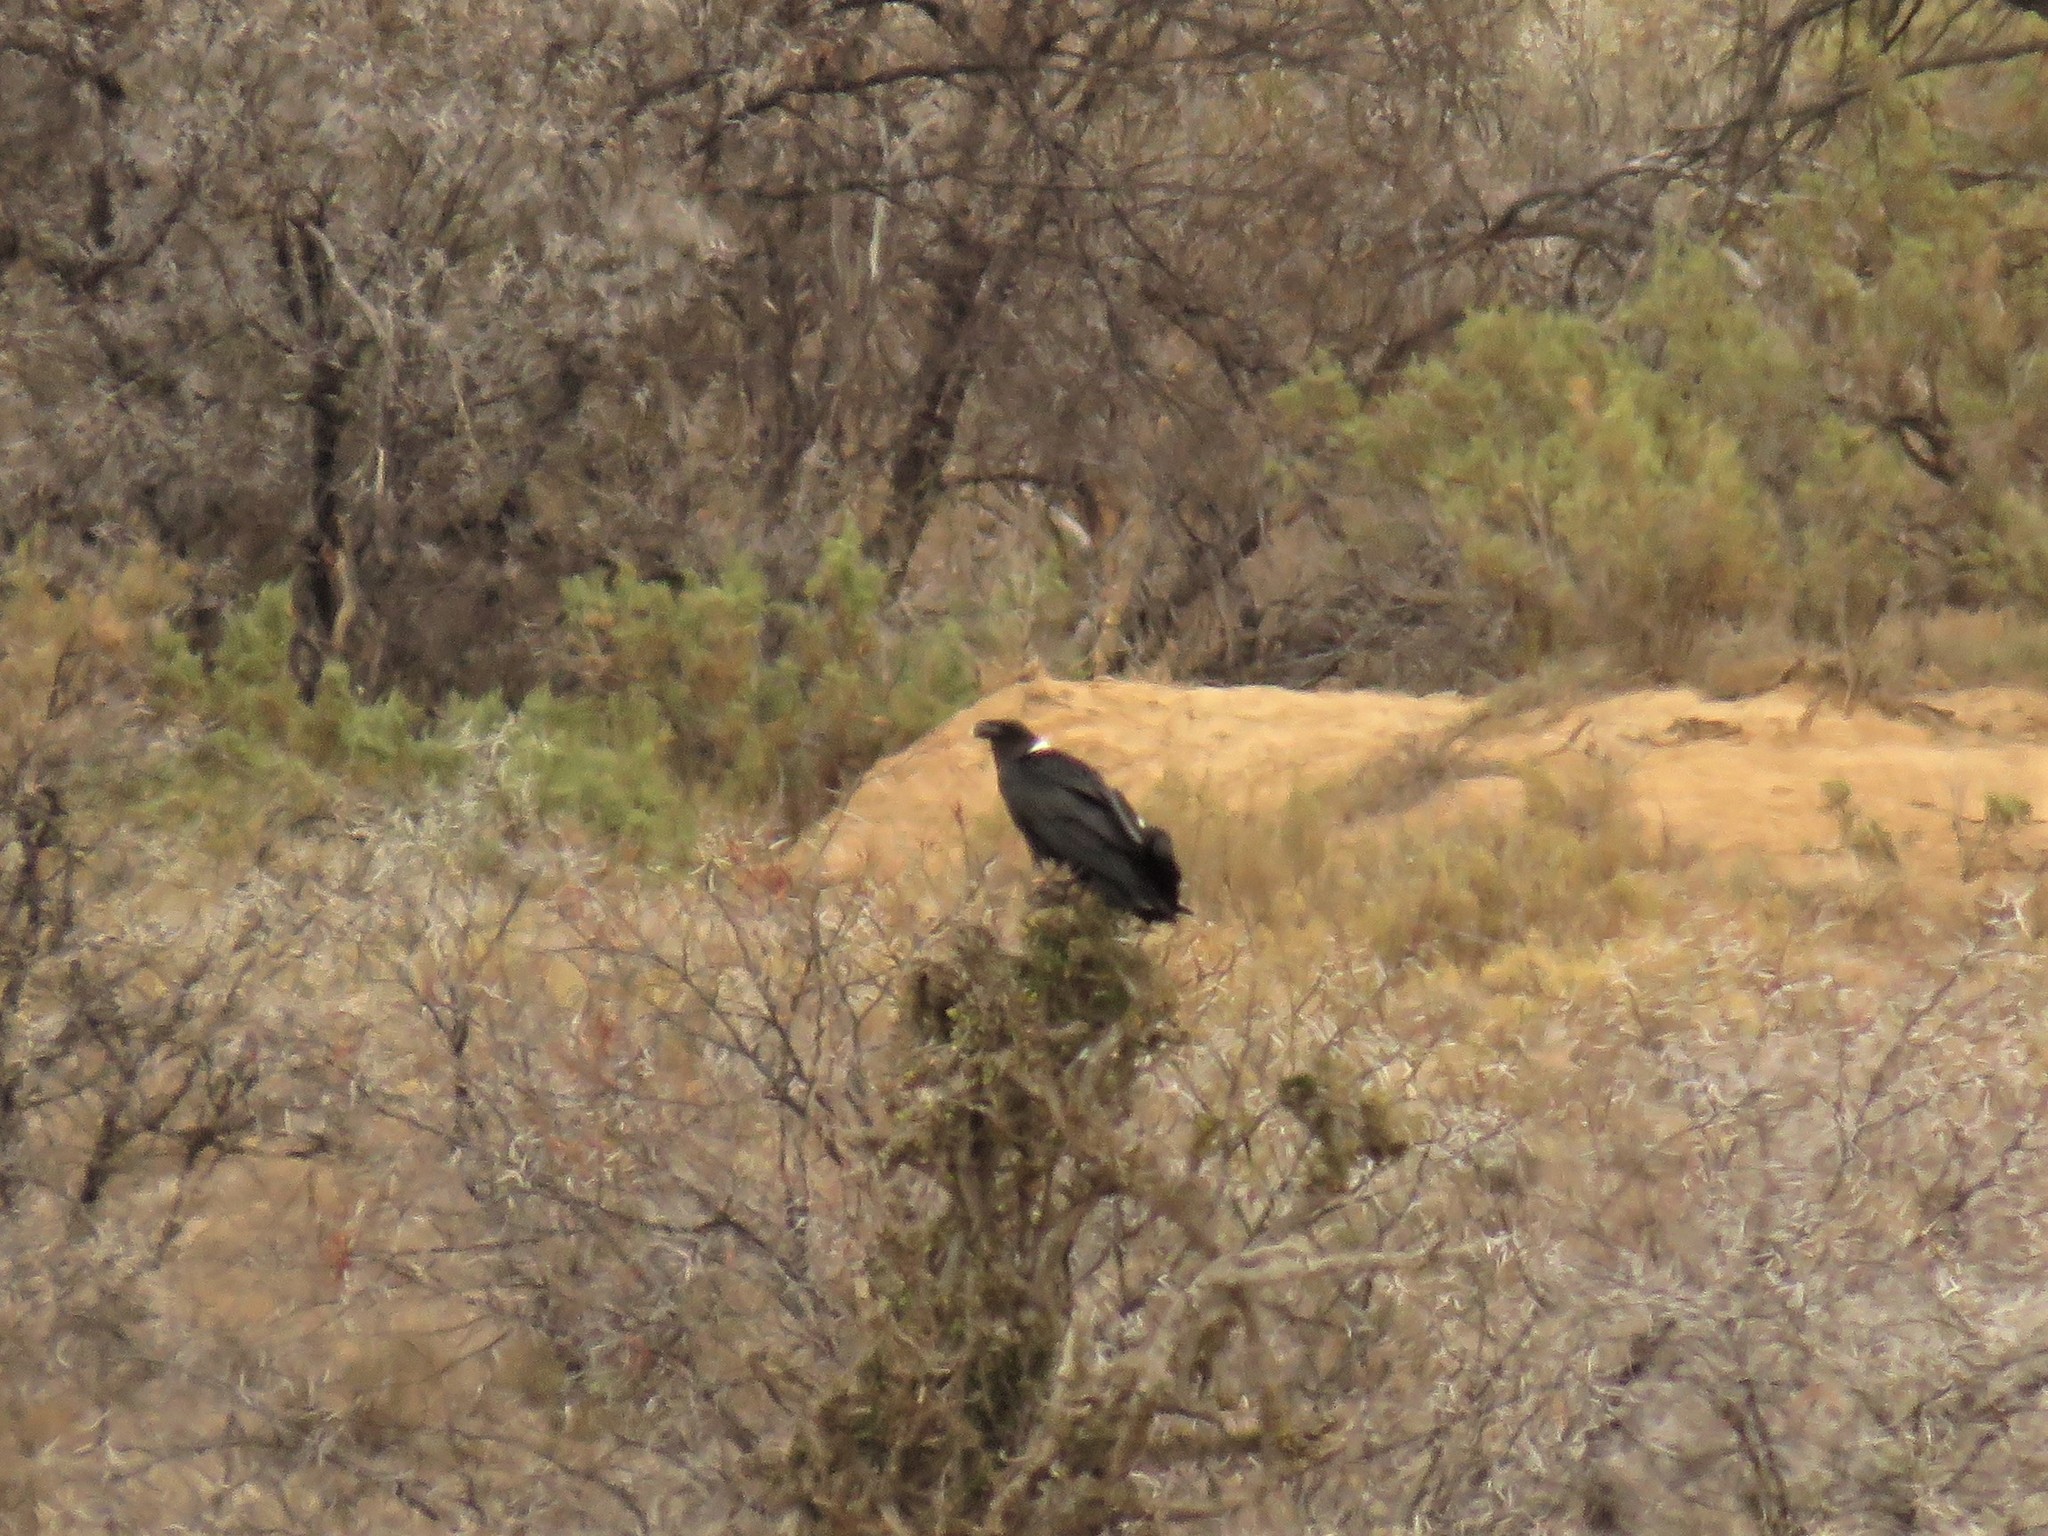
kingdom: Animalia
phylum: Chordata
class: Aves
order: Passeriformes
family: Corvidae
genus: Corvus
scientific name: Corvus albicollis
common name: White-necked raven
